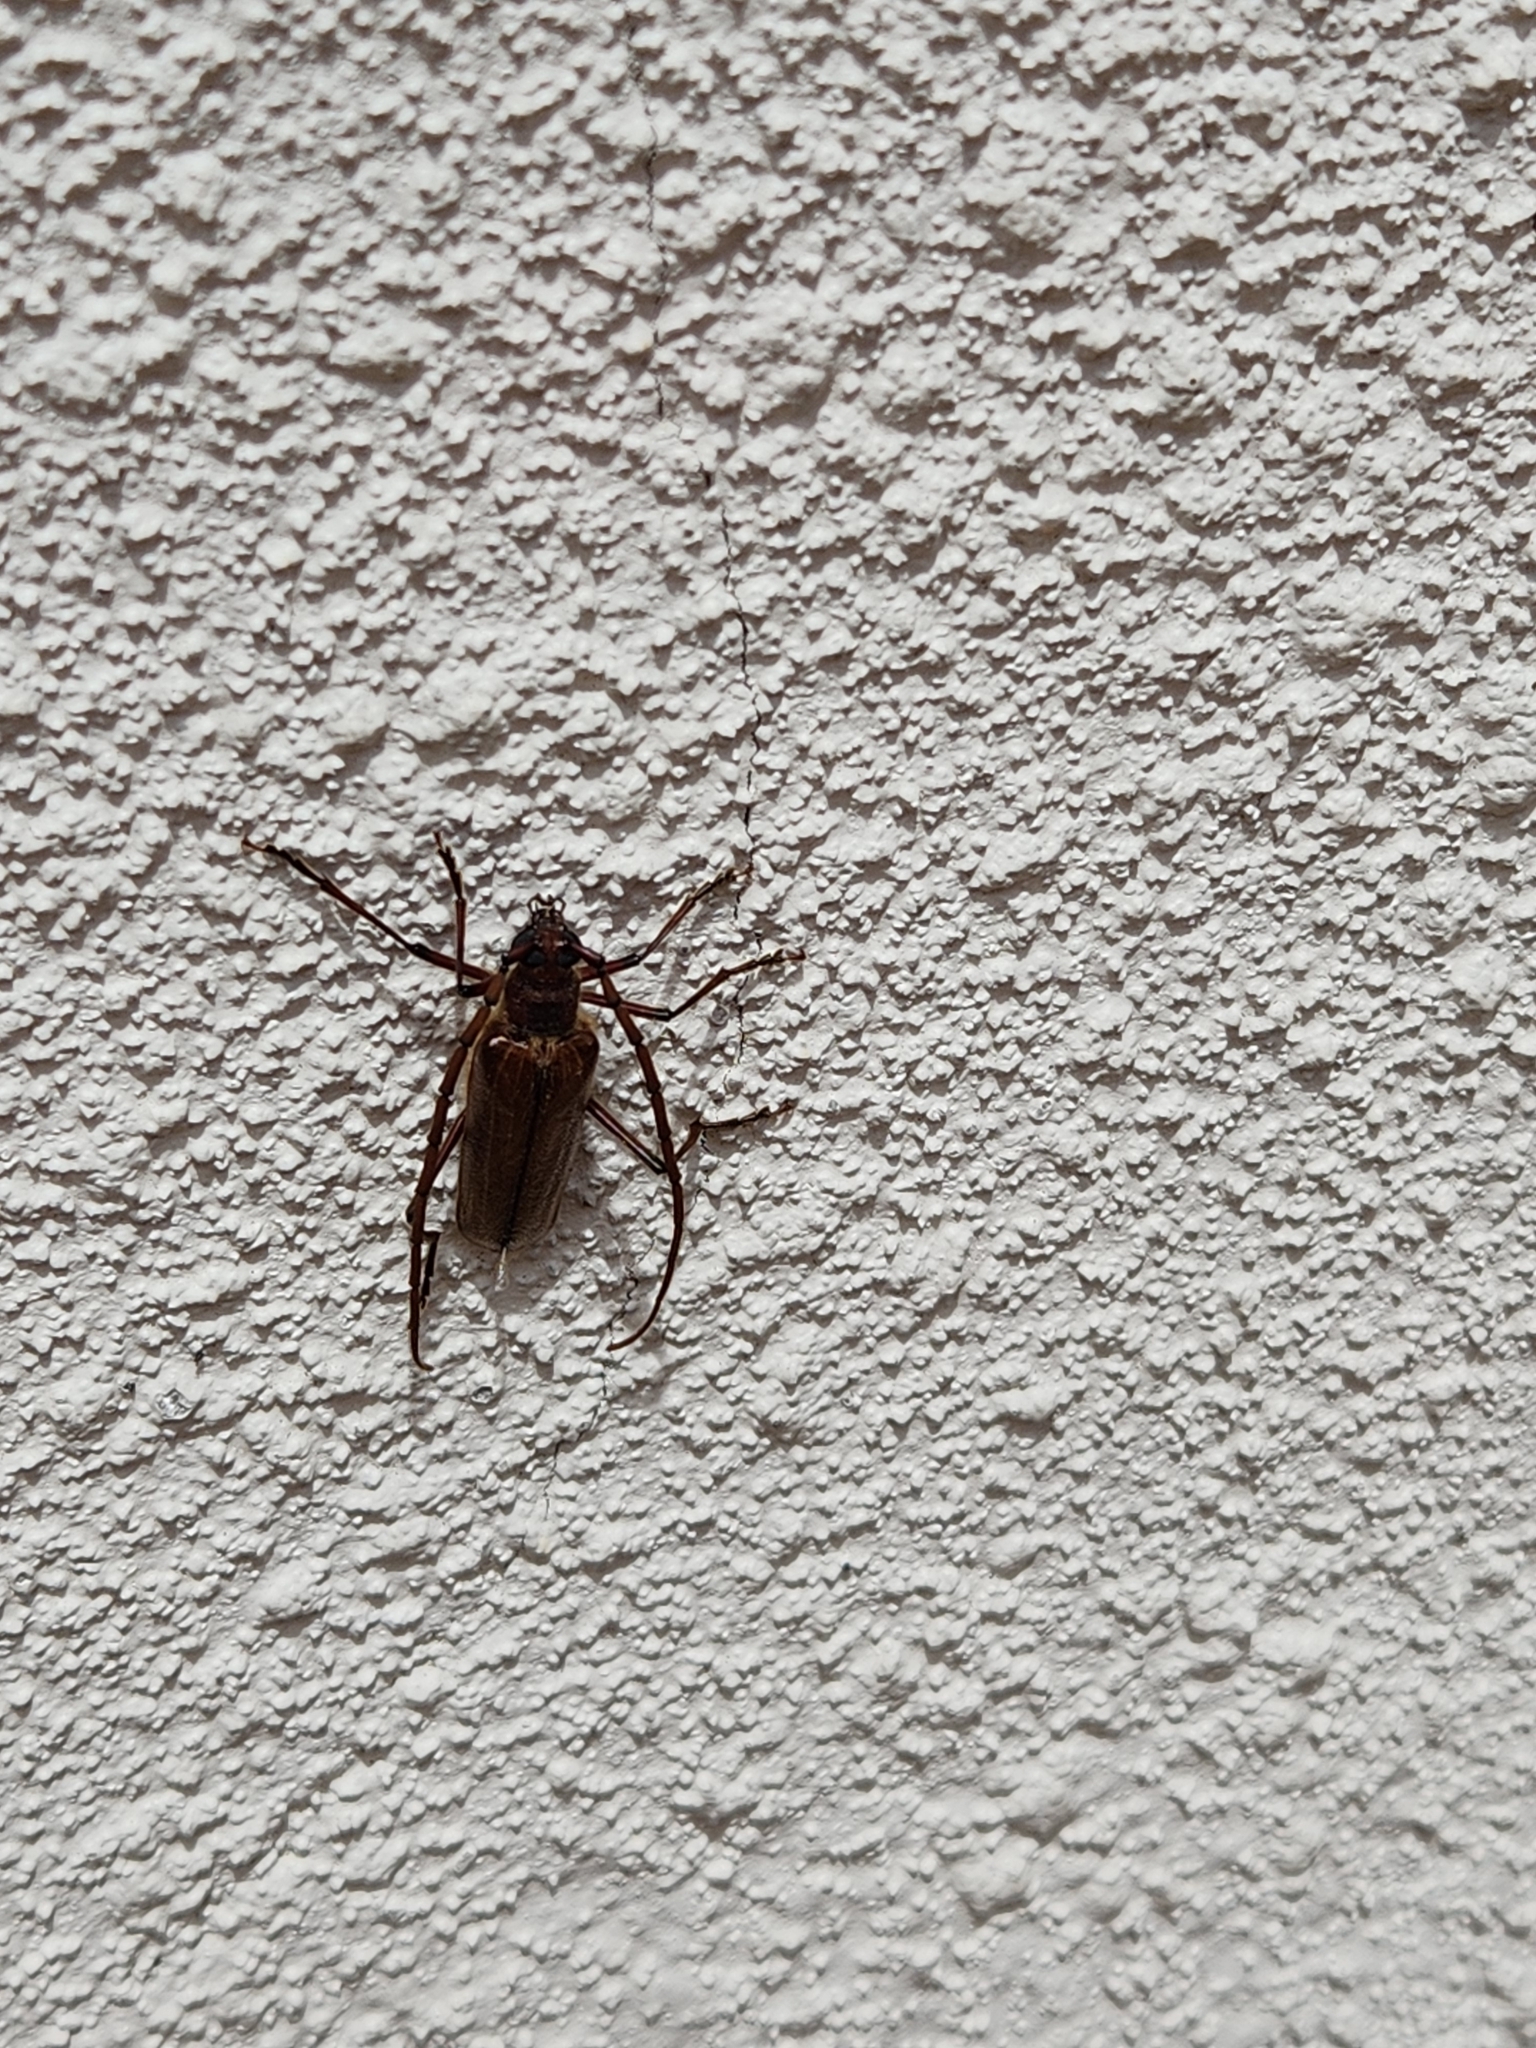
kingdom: Animalia
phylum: Arthropoda
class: Insecta
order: Coleoptera
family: Cerambycidae
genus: Ochrocydus
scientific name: Ochrocydus huttoni
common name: Kanuka longhorn
